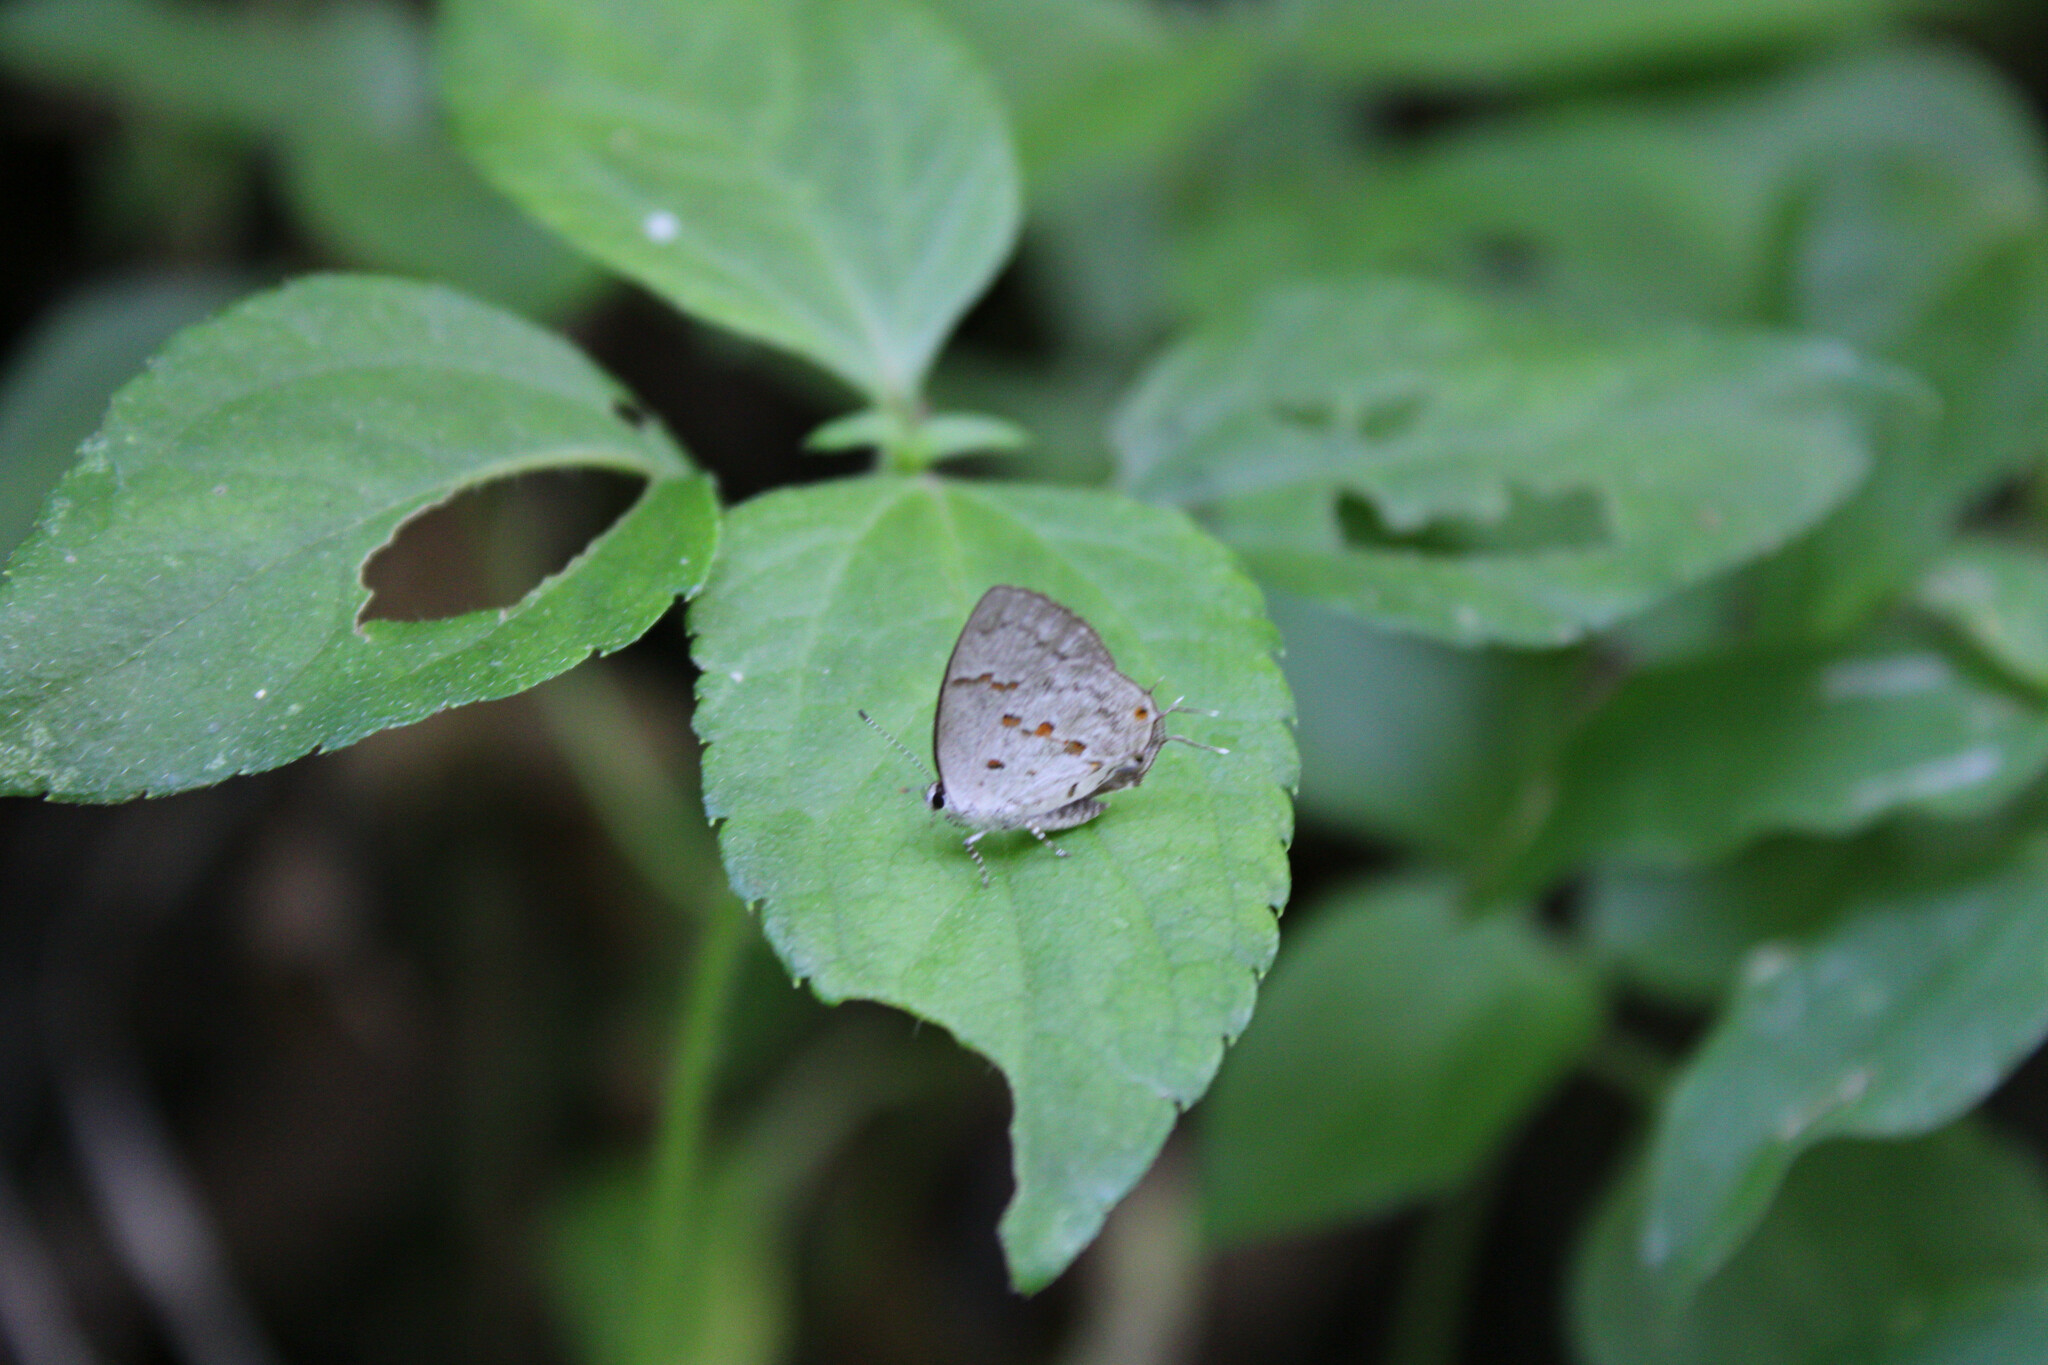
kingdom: Animalia
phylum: Arthropoda
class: Insecta
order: Lepidoptera
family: Lycaenidae
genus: Thecla
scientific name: Thecla celmus
